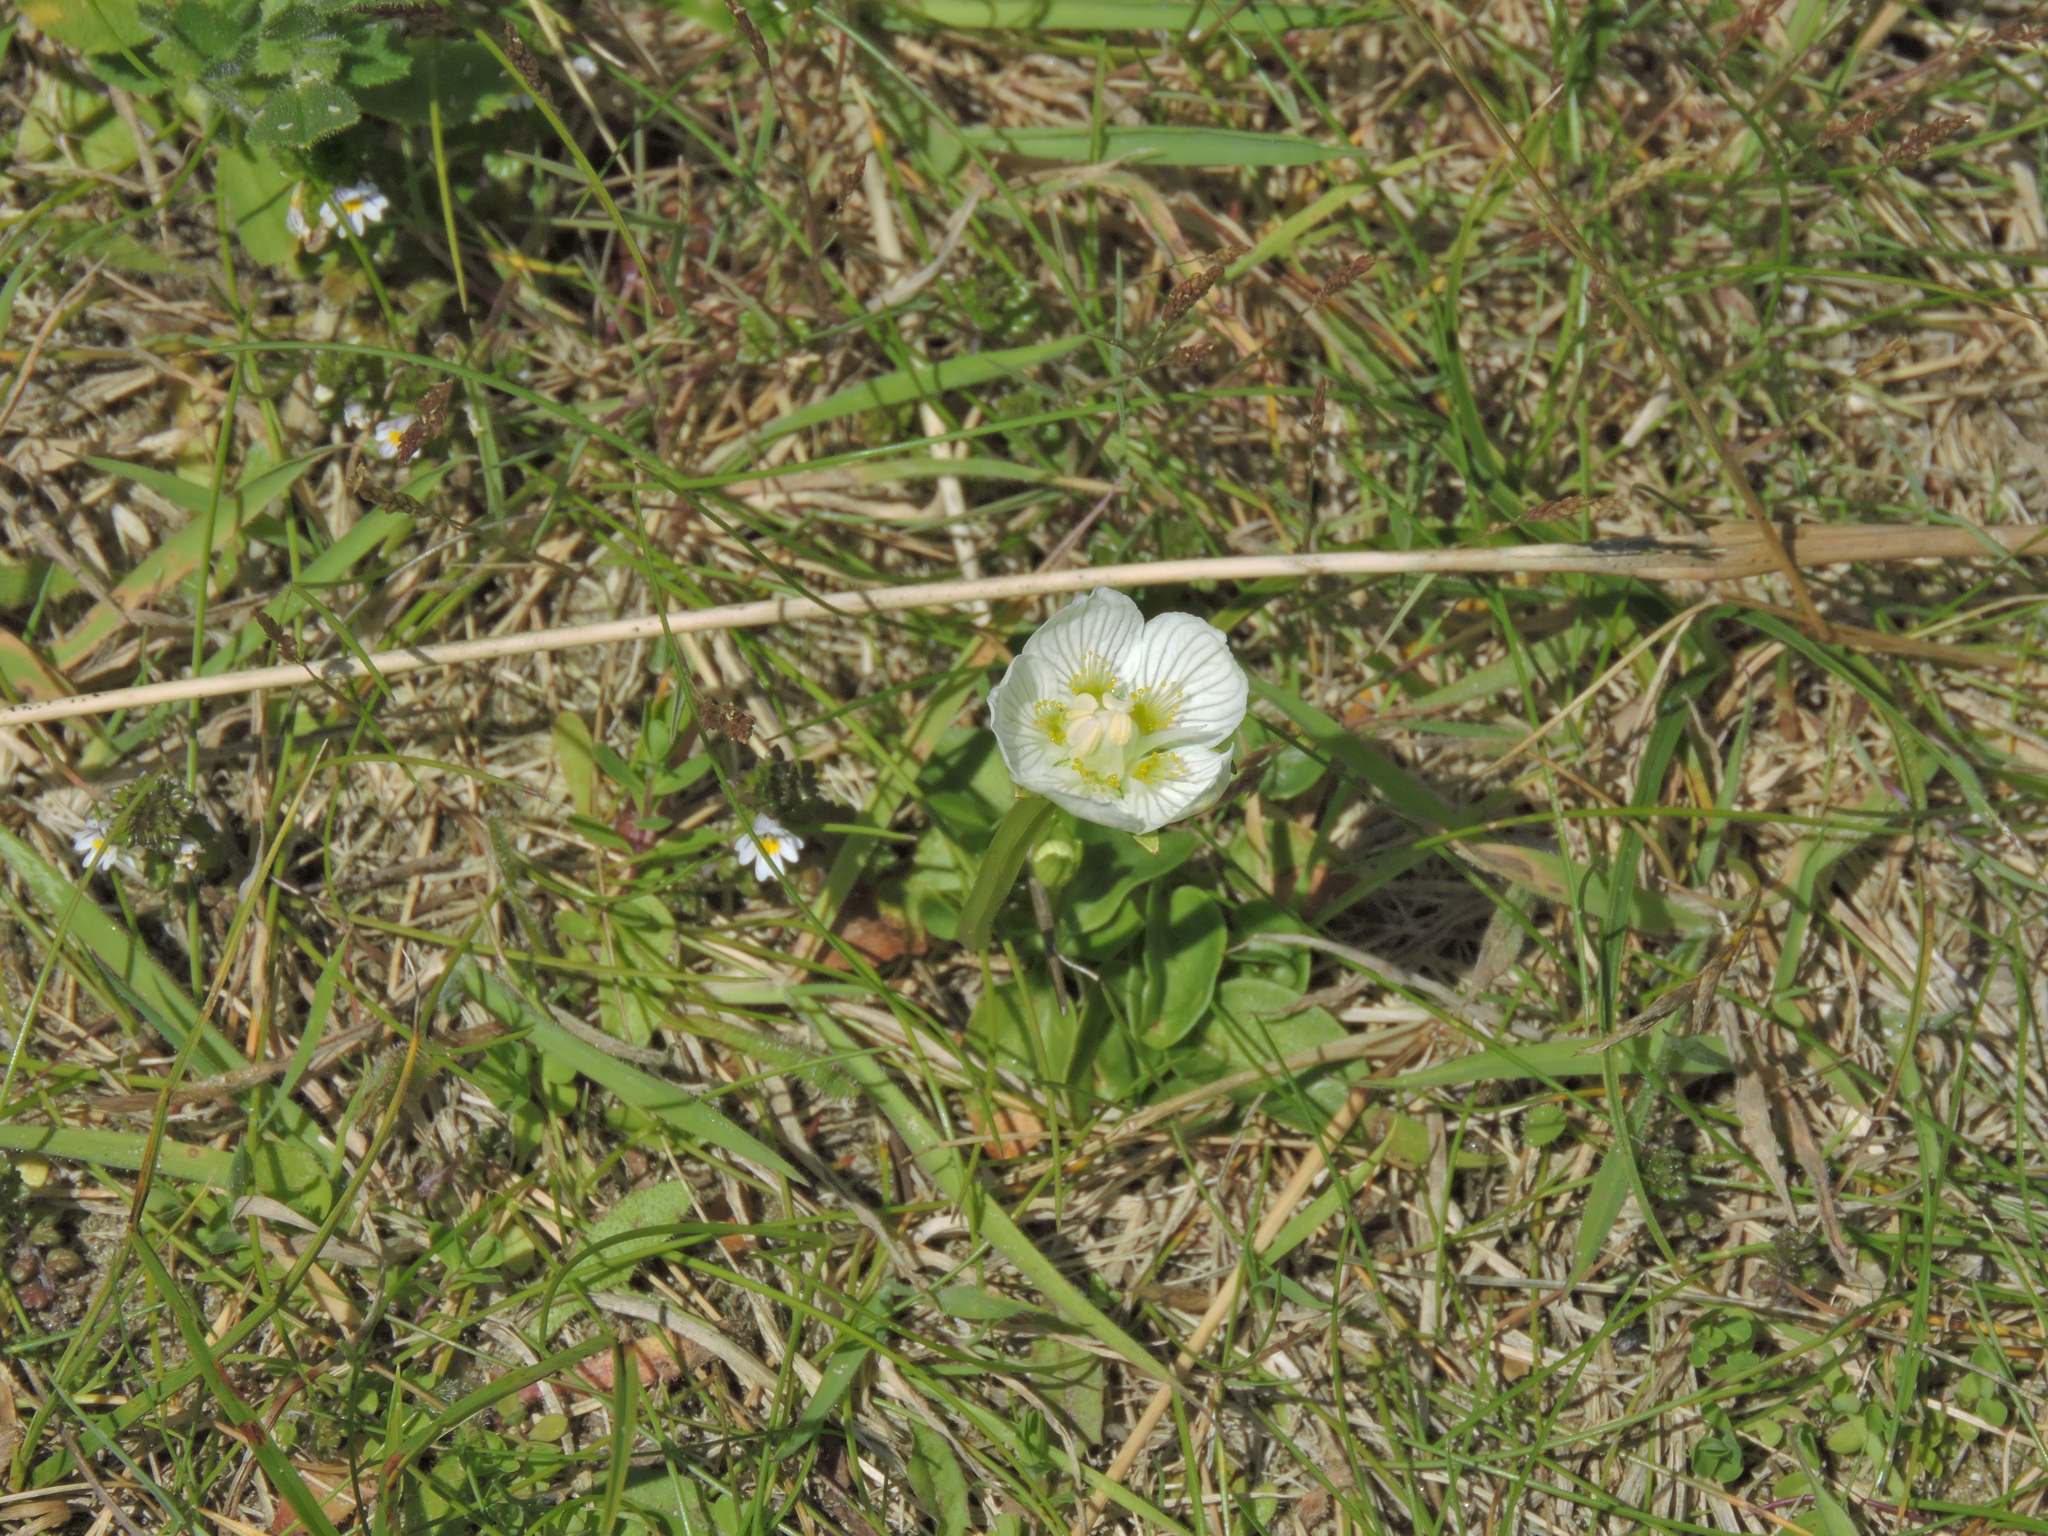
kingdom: Plantae
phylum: Tracheophyta
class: Magnoliopsida
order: Celastrales
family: Parnassiaceae
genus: Parnassia
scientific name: Parnassia palustris
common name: Grass-of-parnassus
